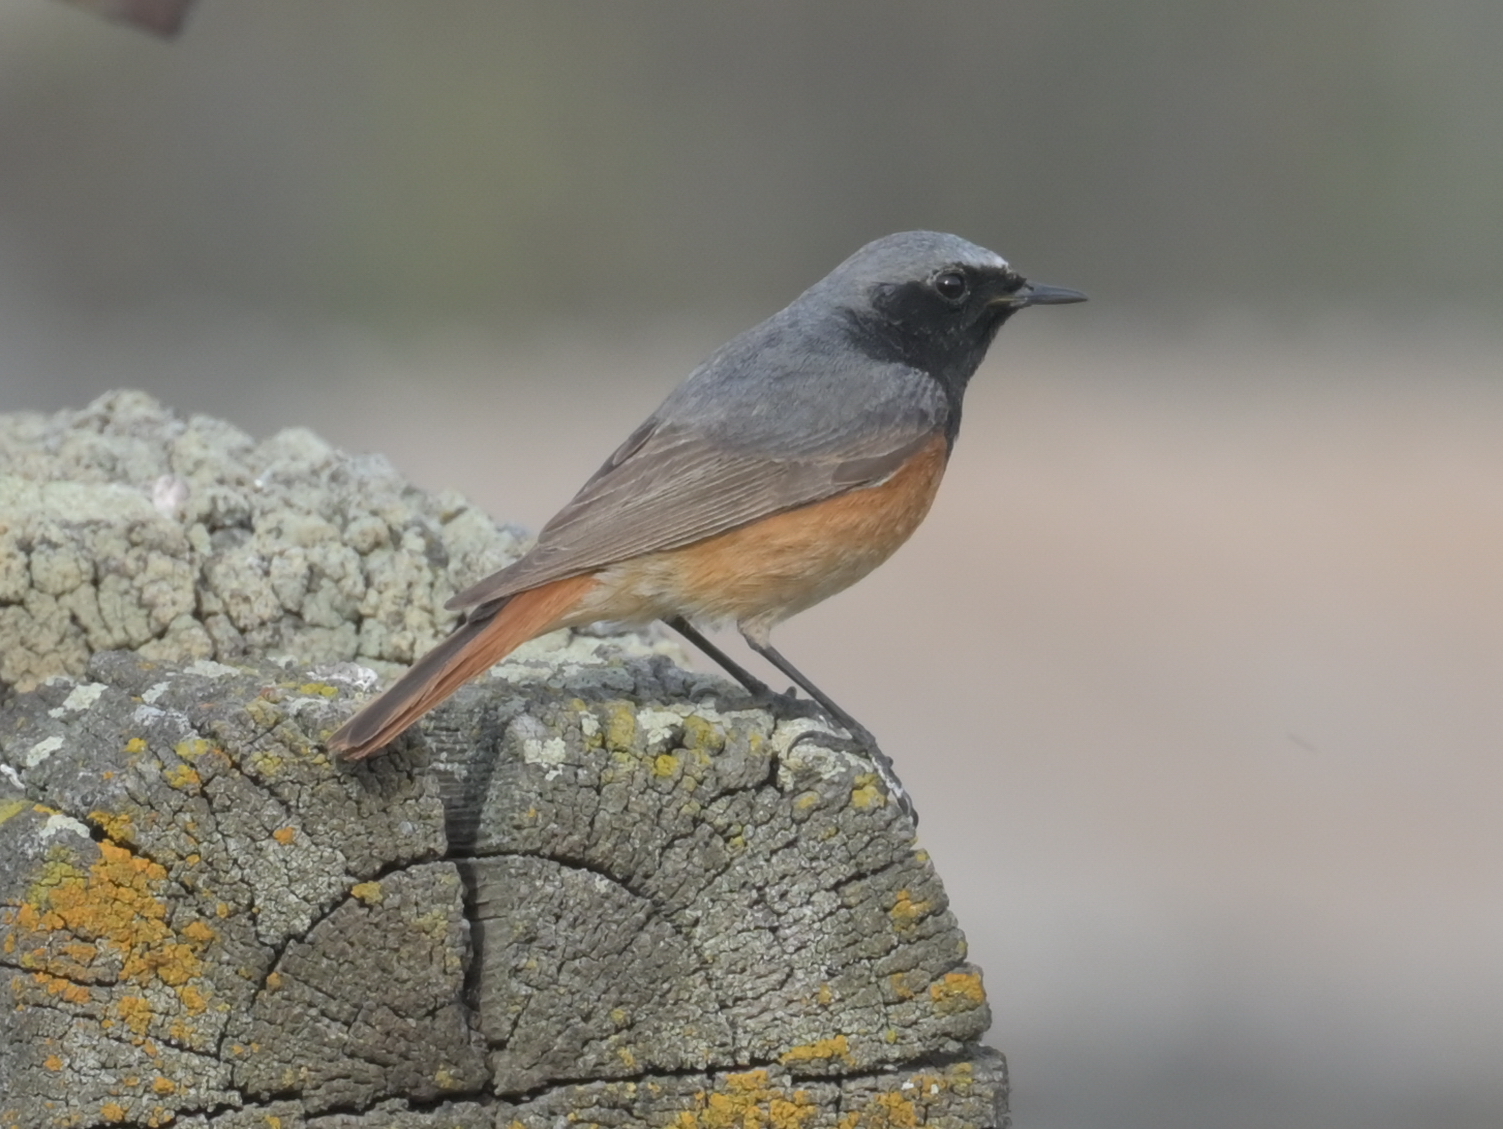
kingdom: Animalia
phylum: Chordata
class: Aves
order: Passeriformes
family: Muscicapidae
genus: Phoenicurus
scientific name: Phoenicurus ochruros
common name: Black redstart
